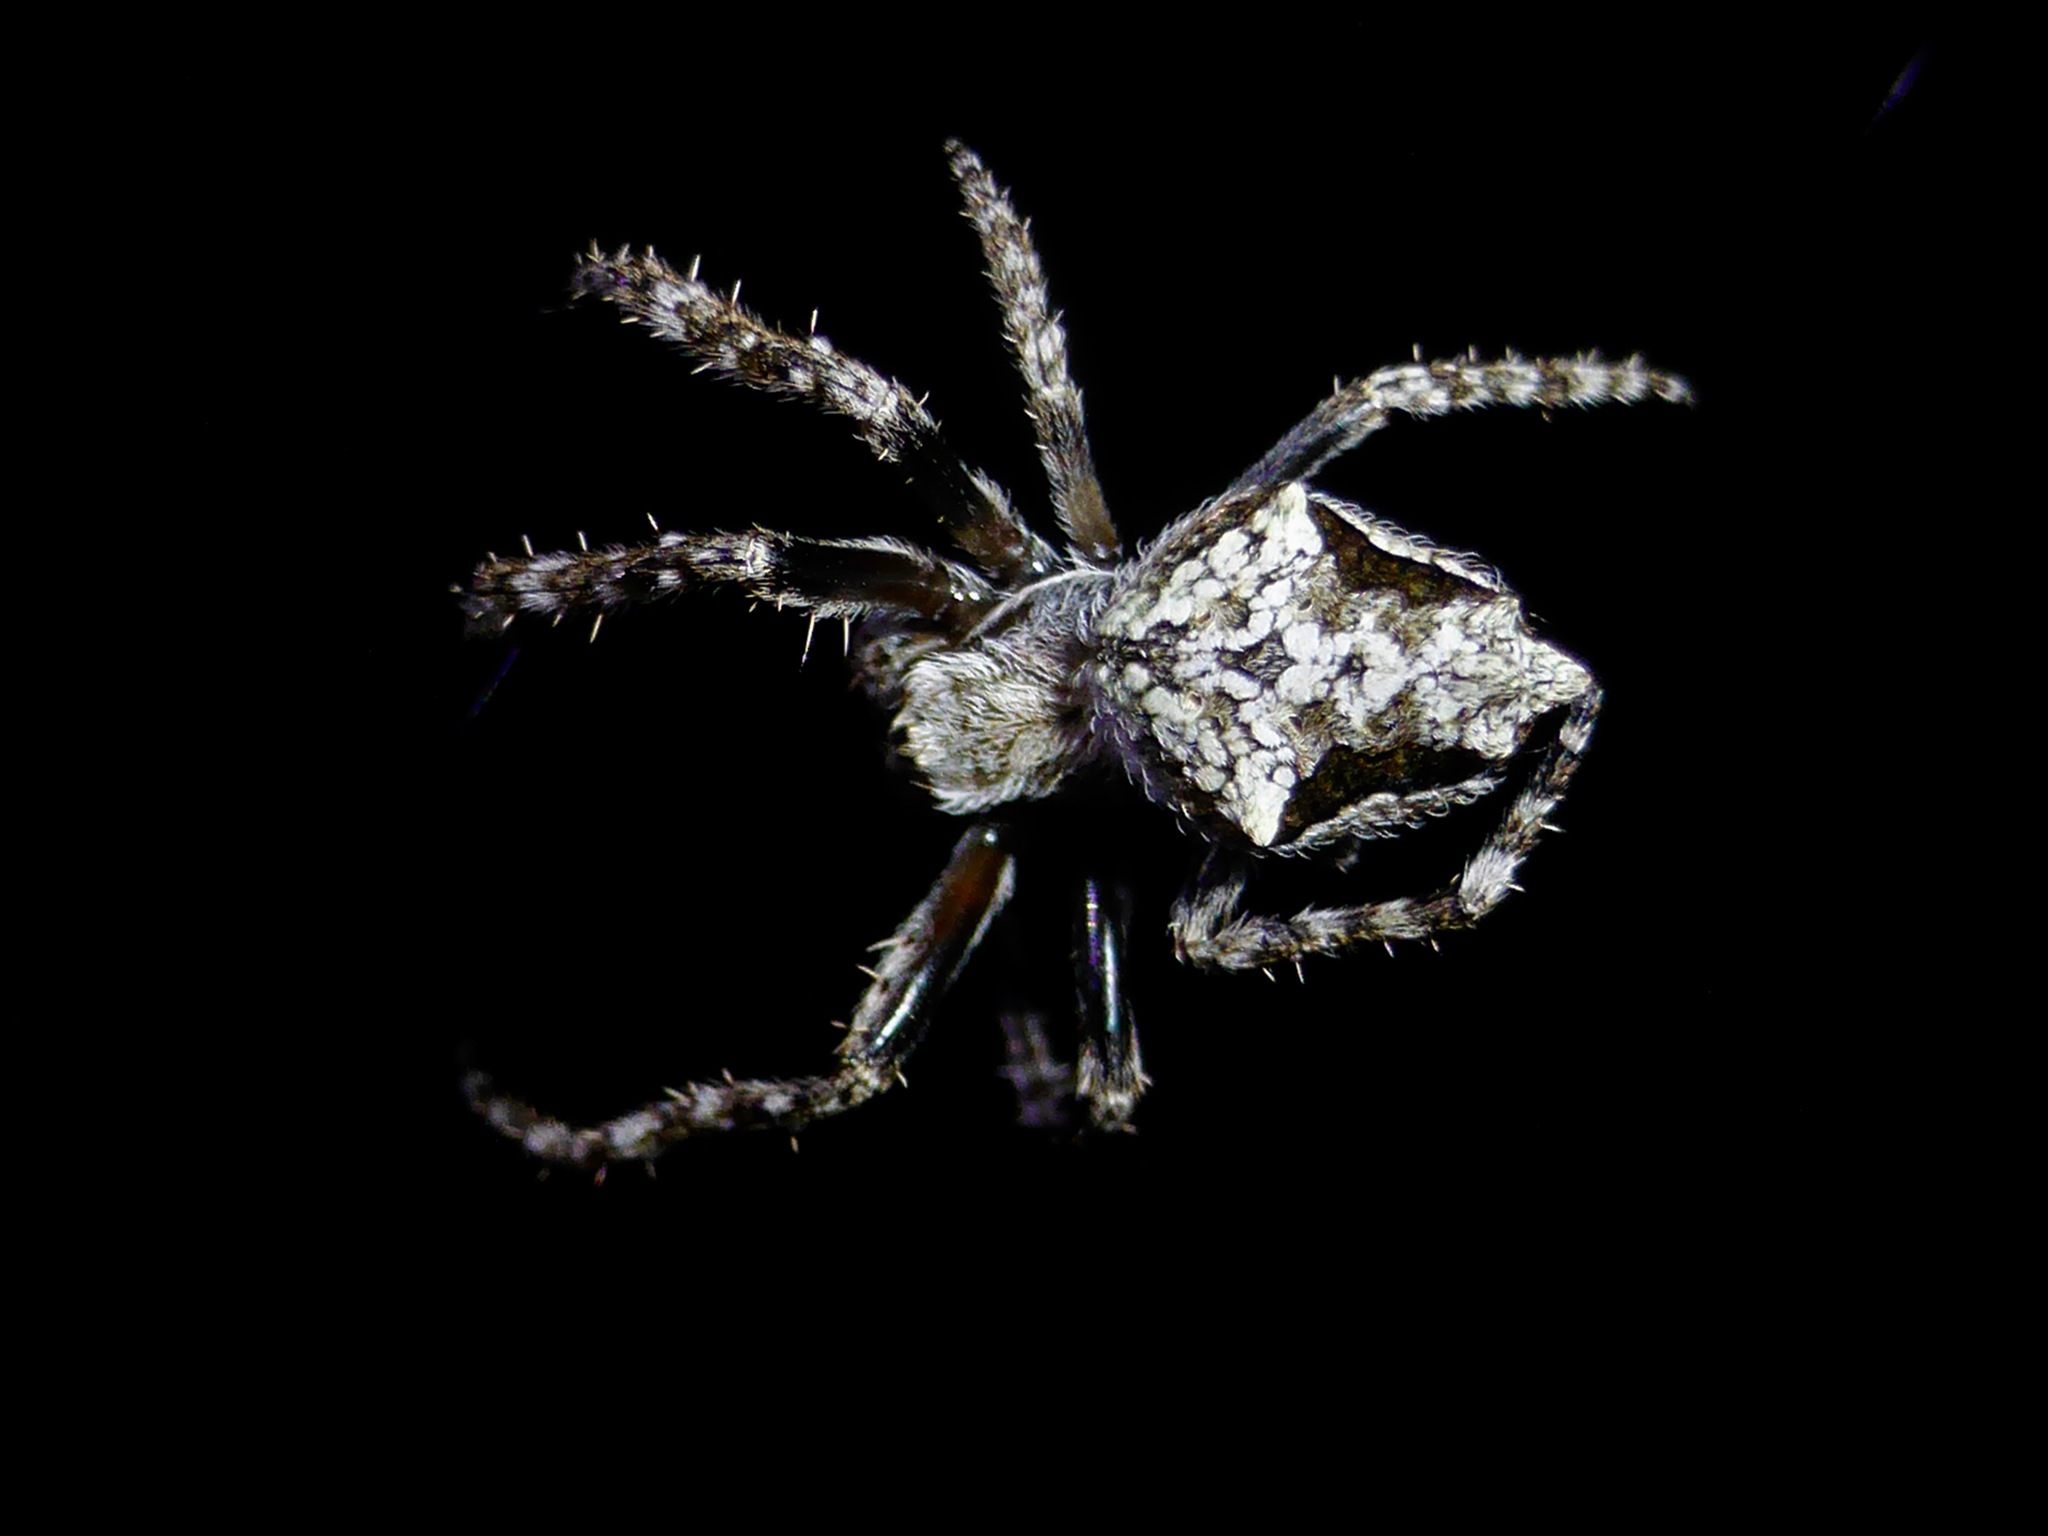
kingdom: Animalia
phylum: Arthropoda
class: Arachnida
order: Araneae
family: Araneidae
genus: Eriophora
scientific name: Eriophora pustulosa
